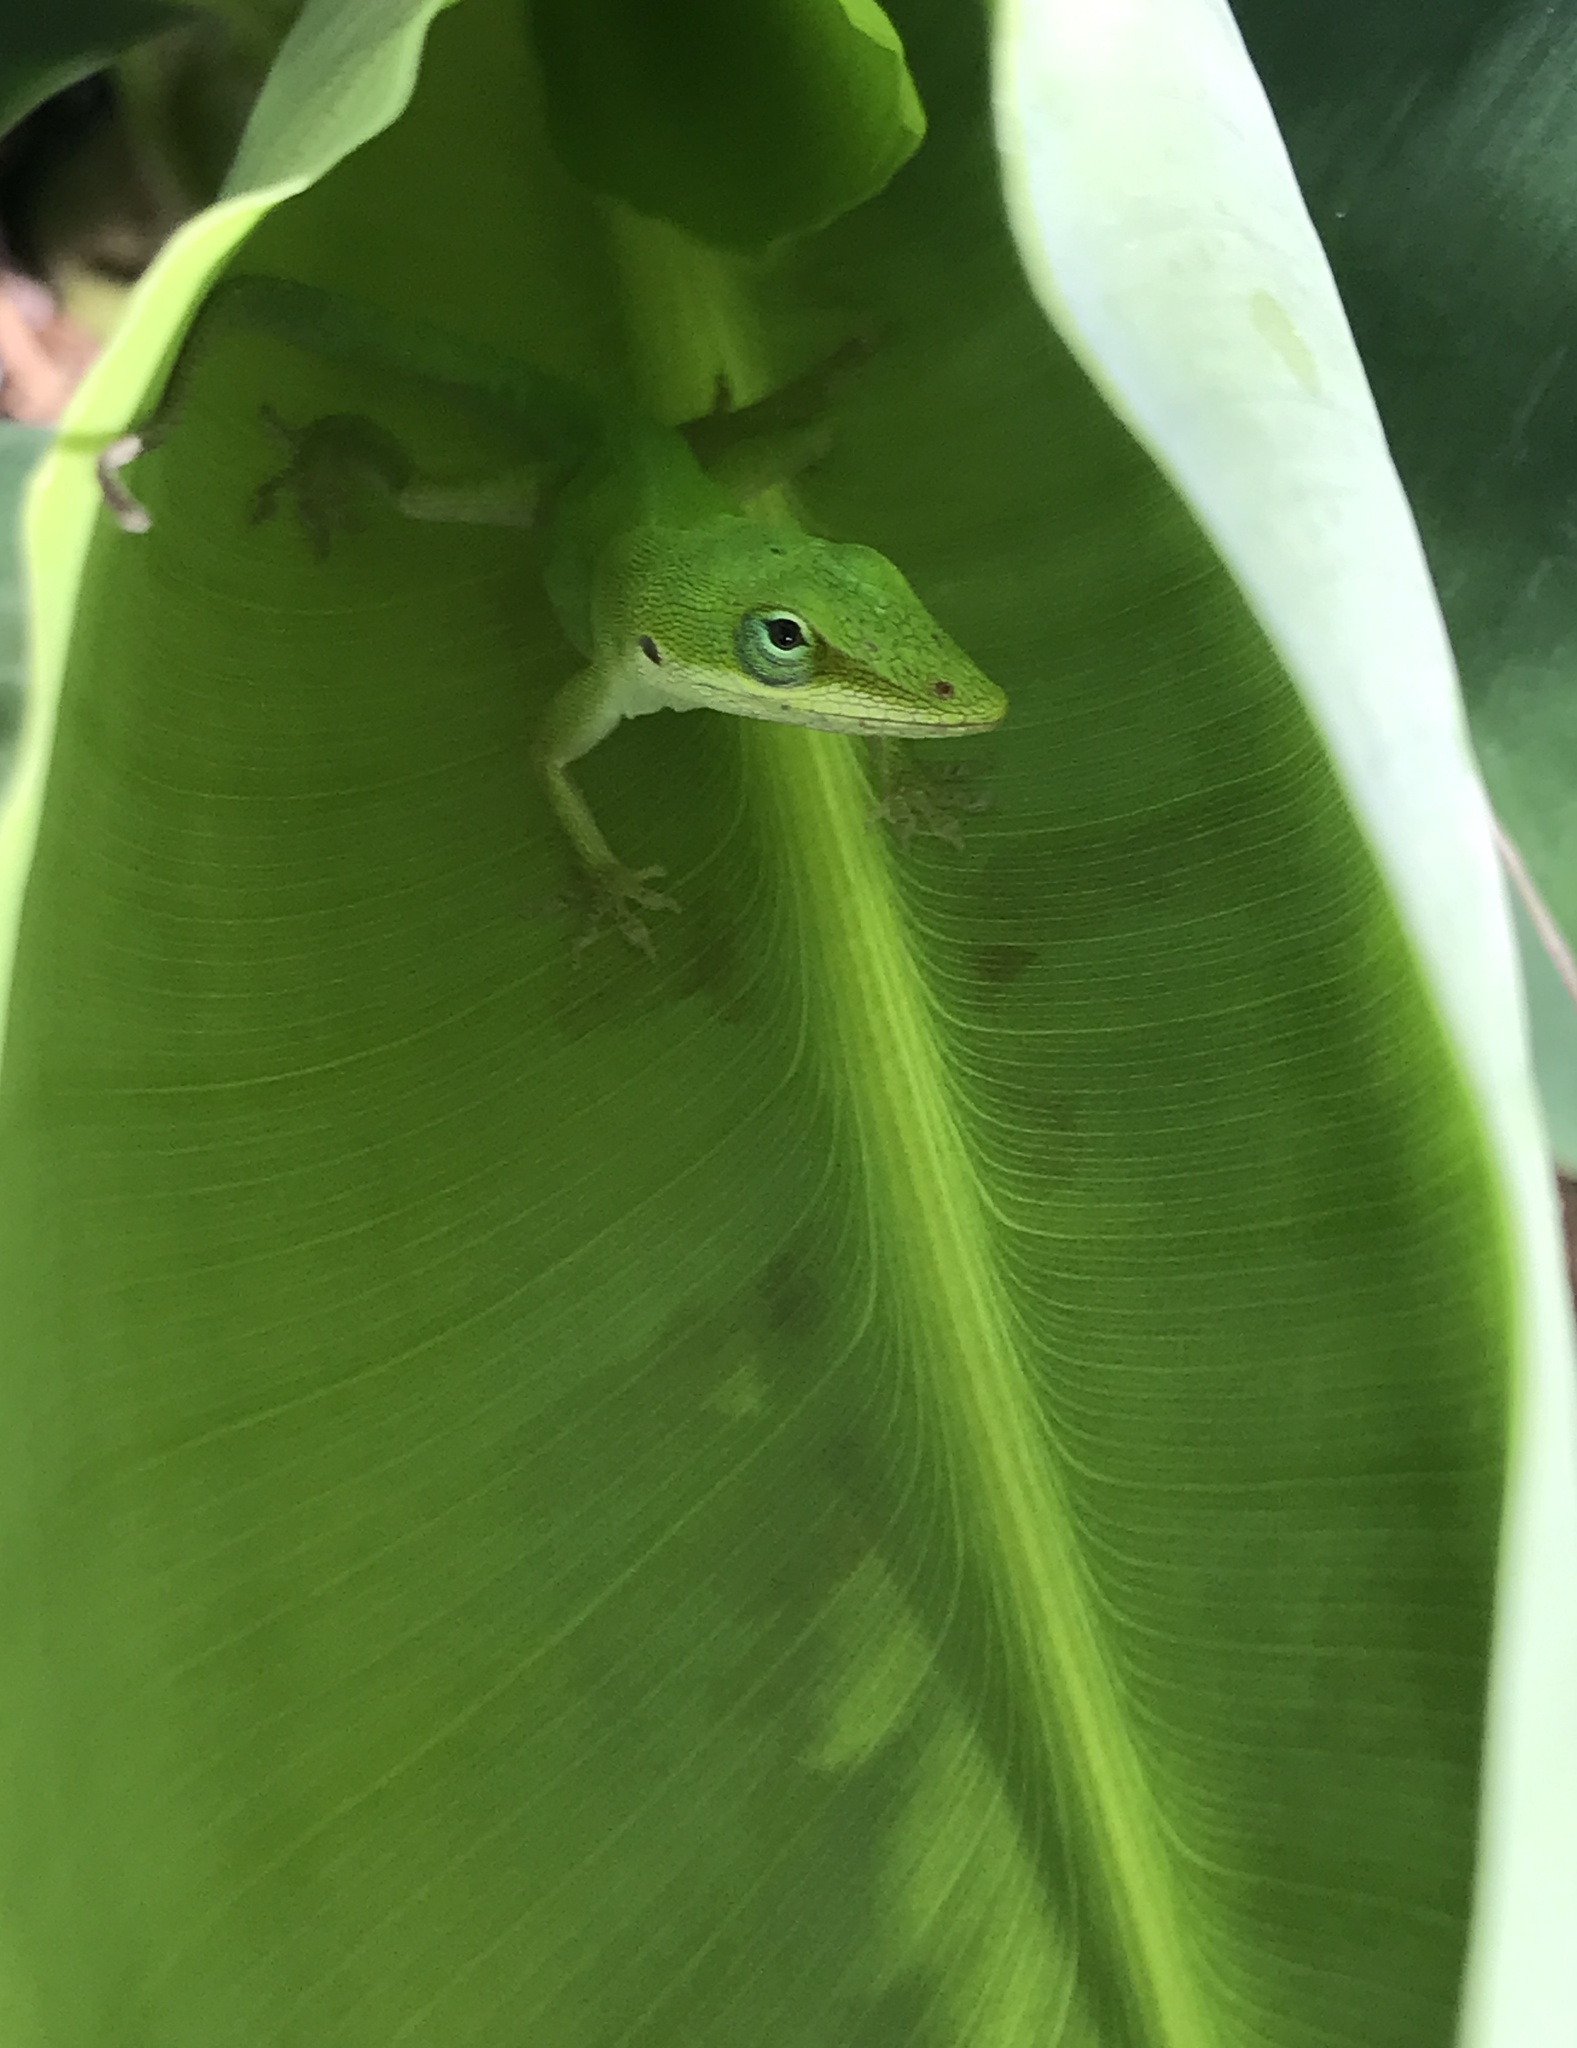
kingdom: Animalia
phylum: Chordata
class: Squamata
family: Dactyloidae
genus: Anolis
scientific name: Anolis carolinensis
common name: Green anole
